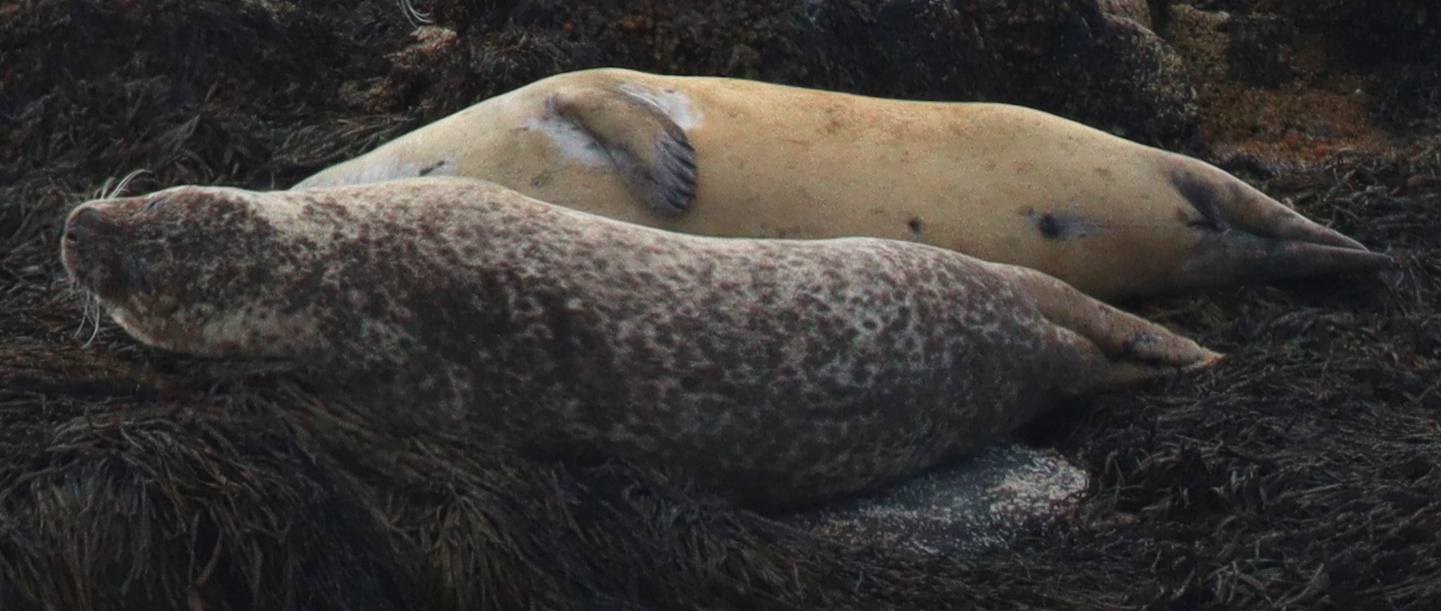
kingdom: Animalia
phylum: Chordata
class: Mammalia
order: Carnivora
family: Phocidae
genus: Phoca
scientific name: Phoca vitulina
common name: Harbor seal
